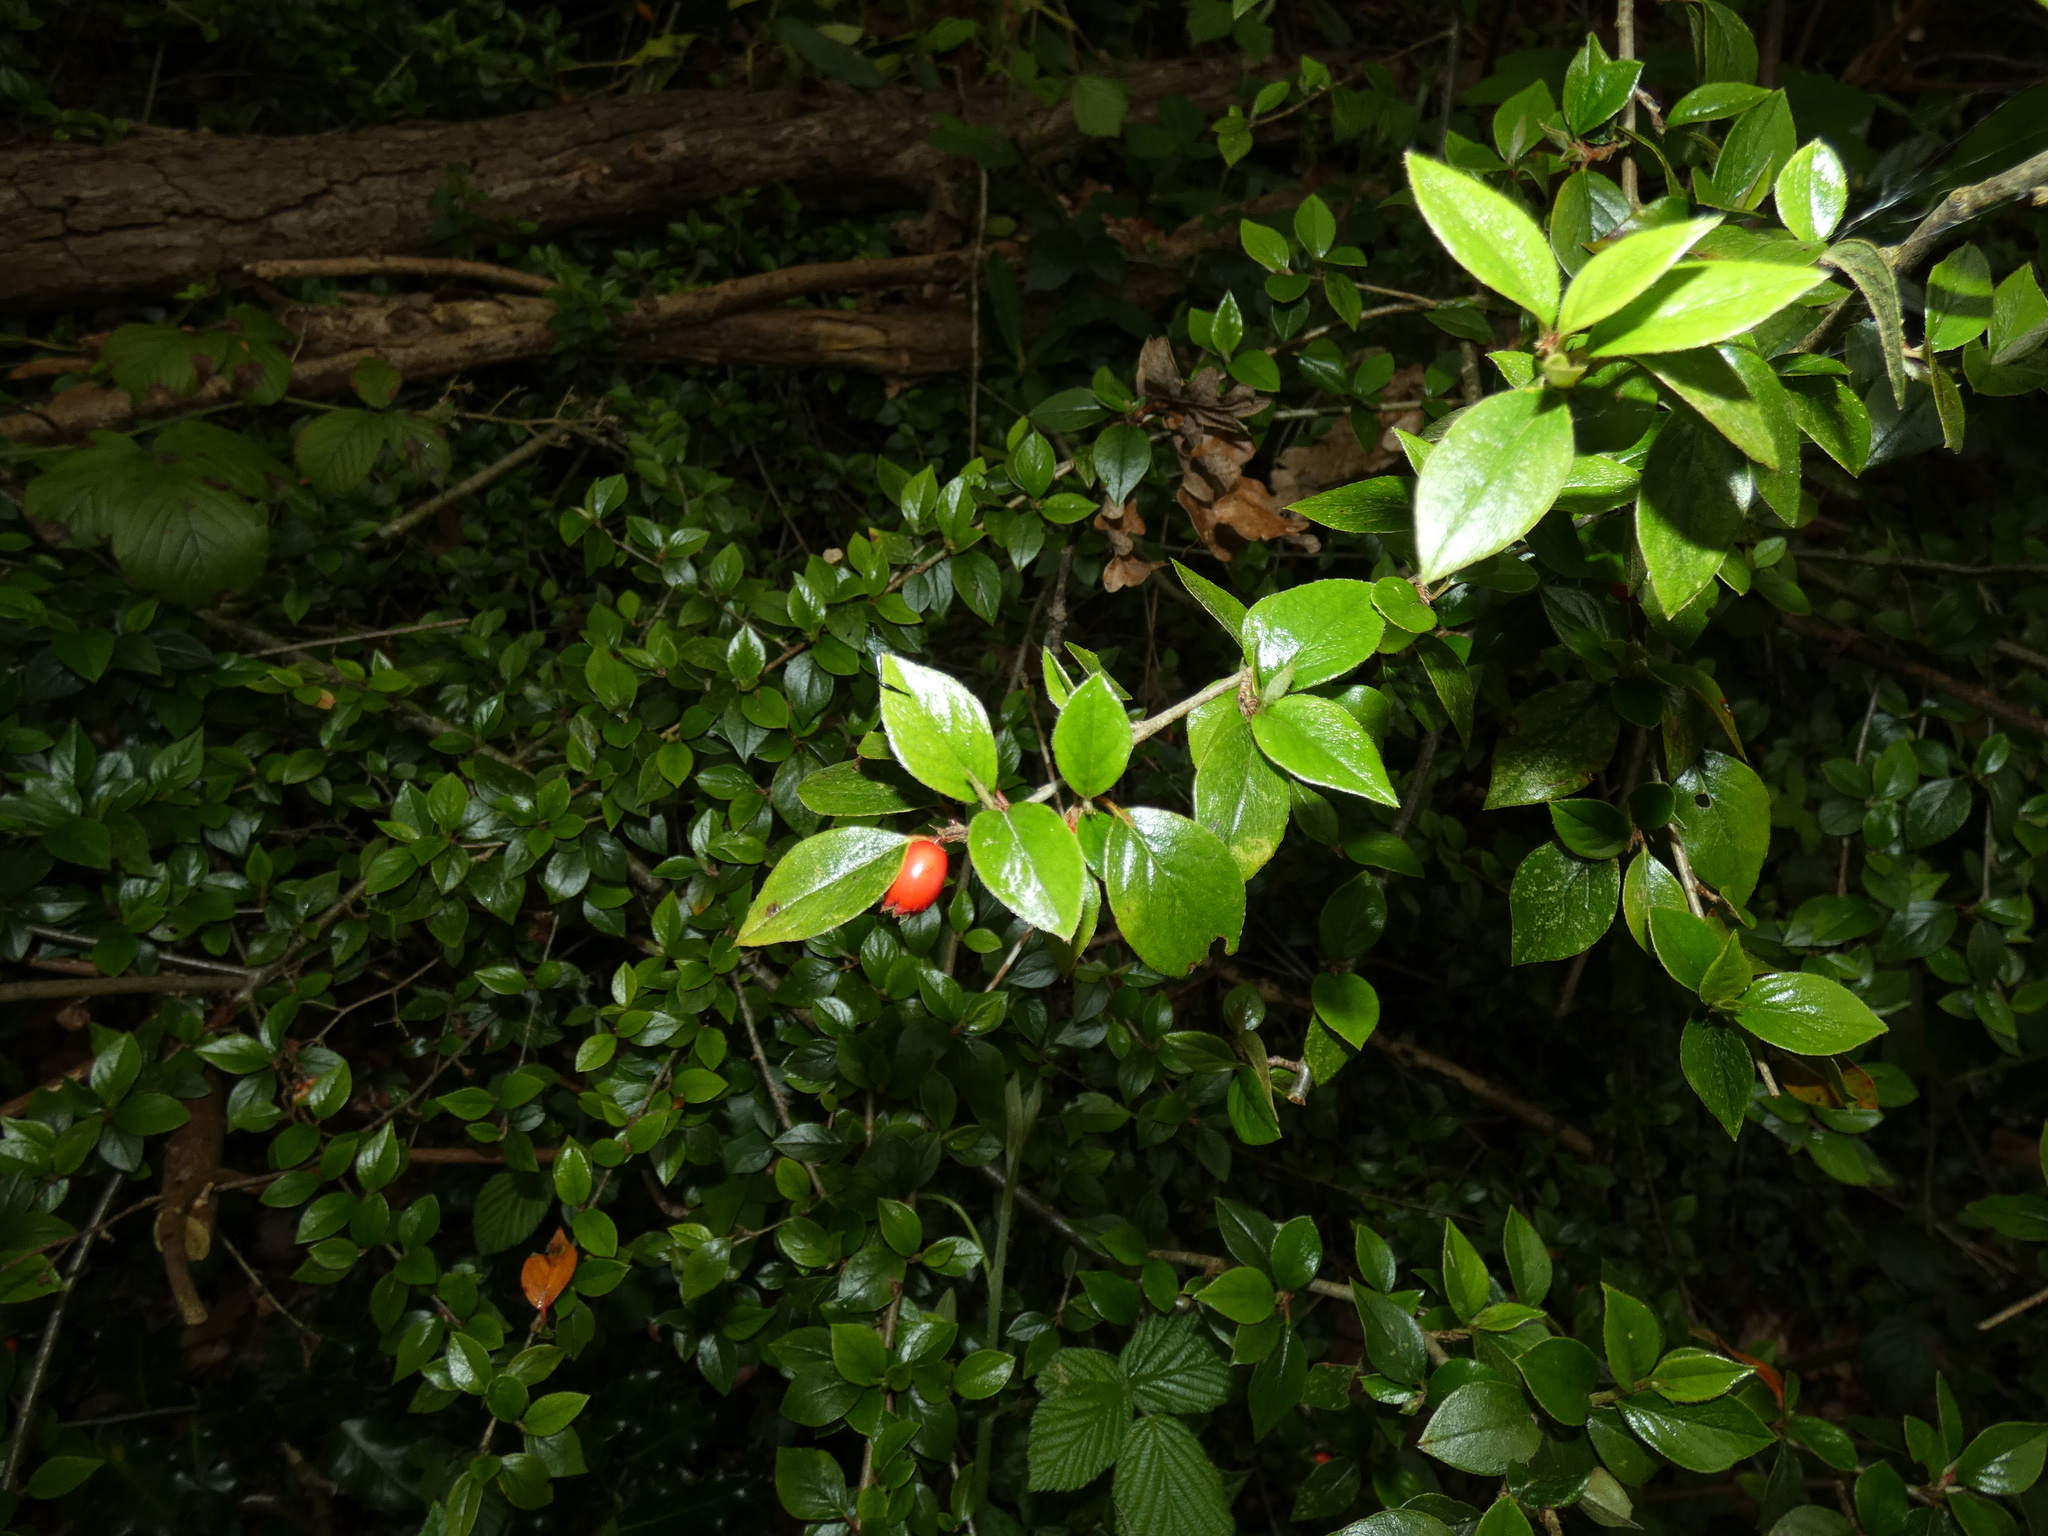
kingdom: Plantae
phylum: Tracheophyta
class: Magnoliopsida
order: Rosales
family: Rosaceae
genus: Cotoneaster
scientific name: Cotoneaster simonsii
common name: Himalayan cotoneaster
